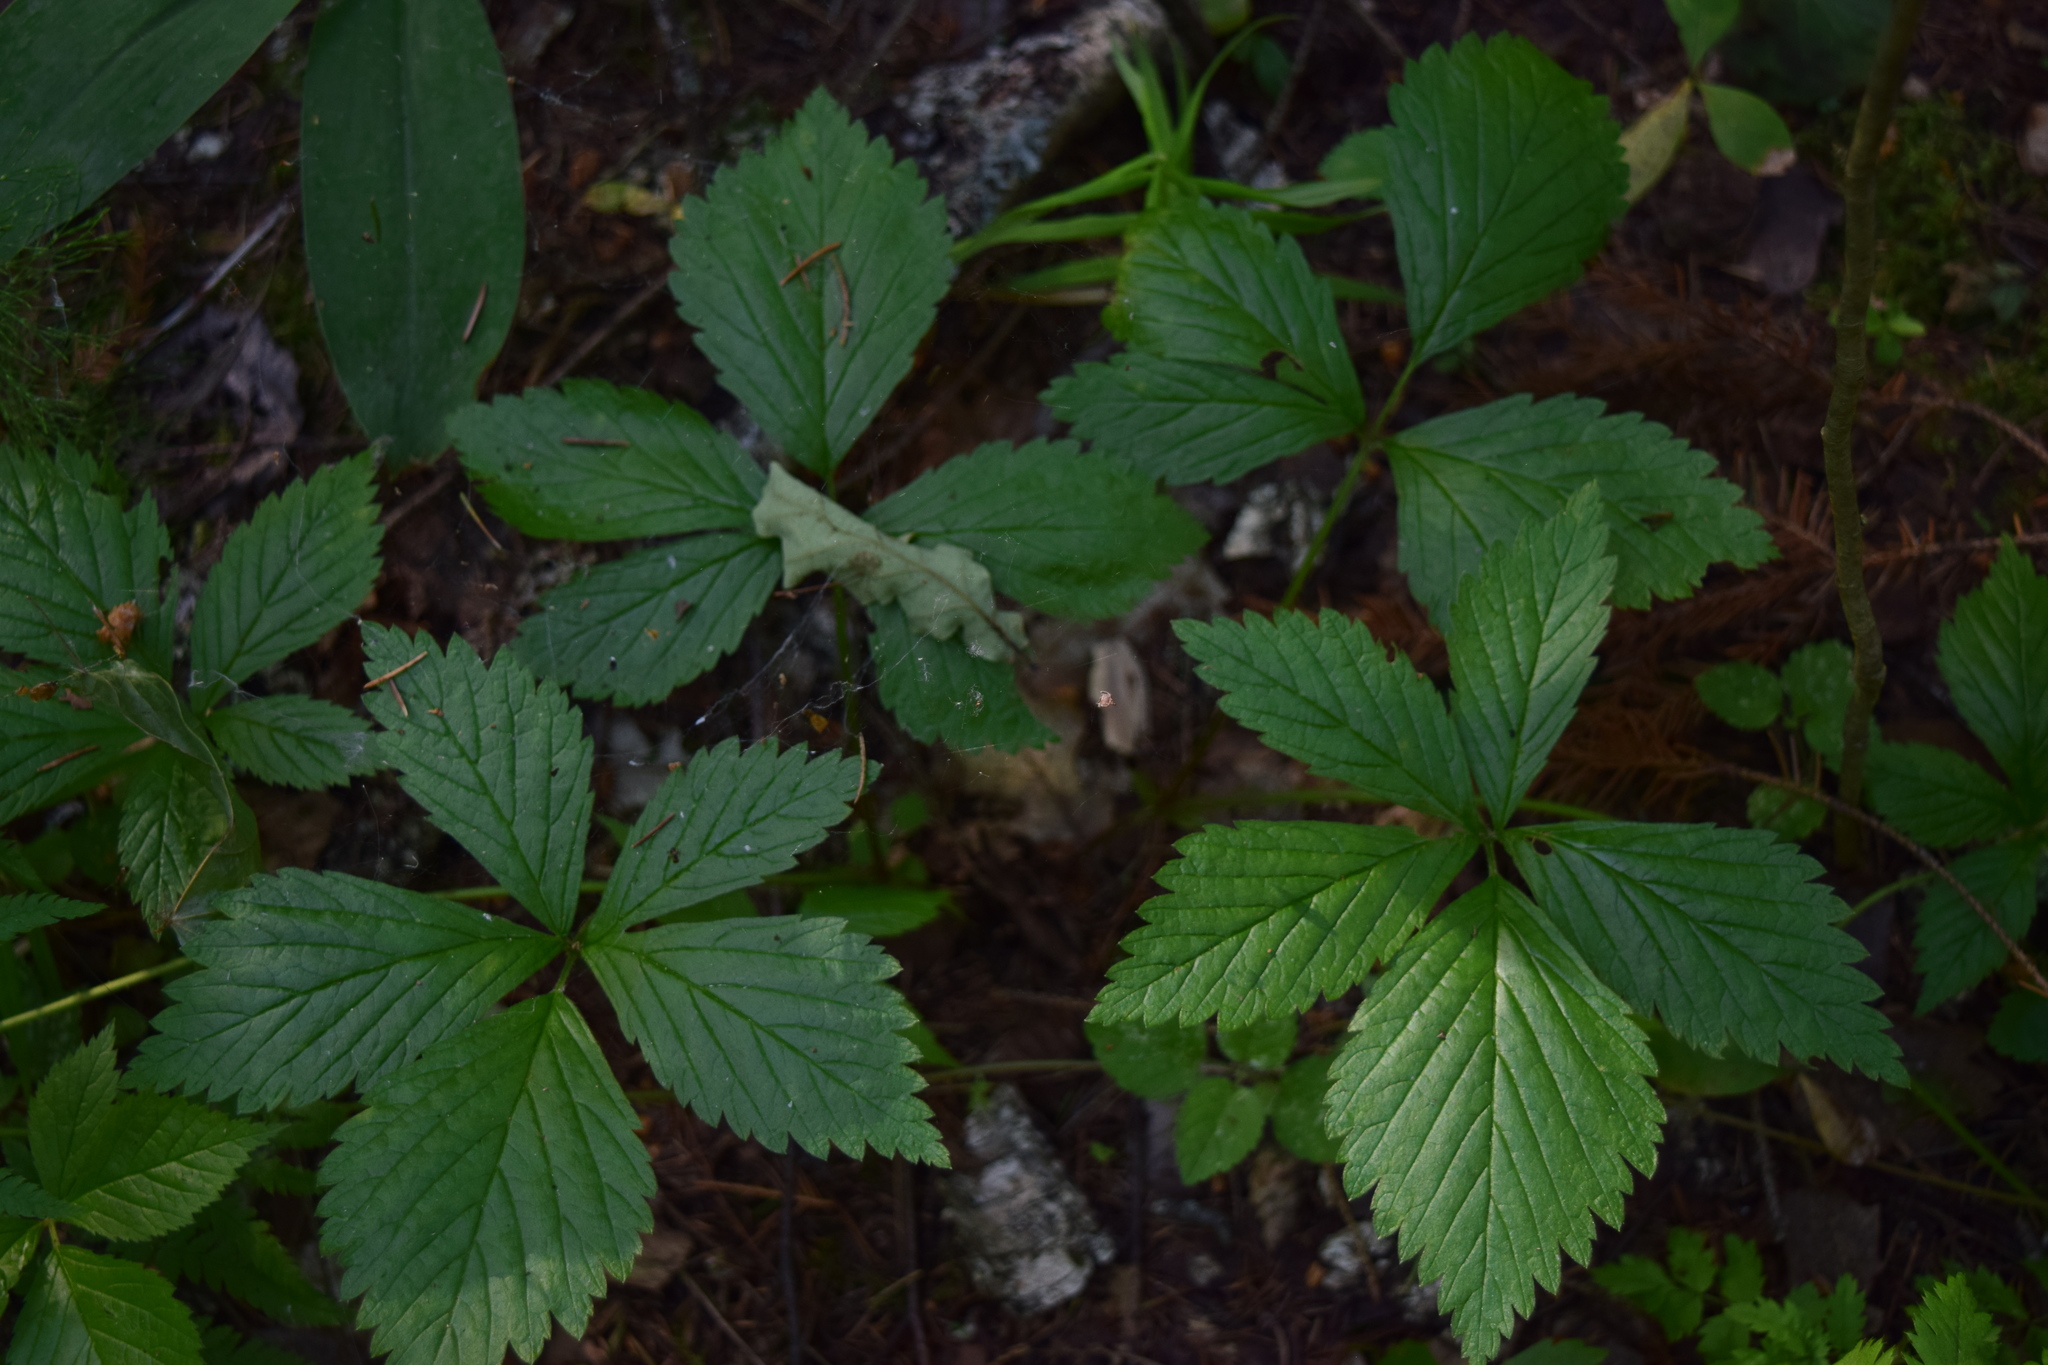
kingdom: Plantae
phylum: Tracheophyta
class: Magnoliopsida
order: Rosales
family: Rosaceae
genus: Rubus
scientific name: Rubus saxatilis
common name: Stone bramble
